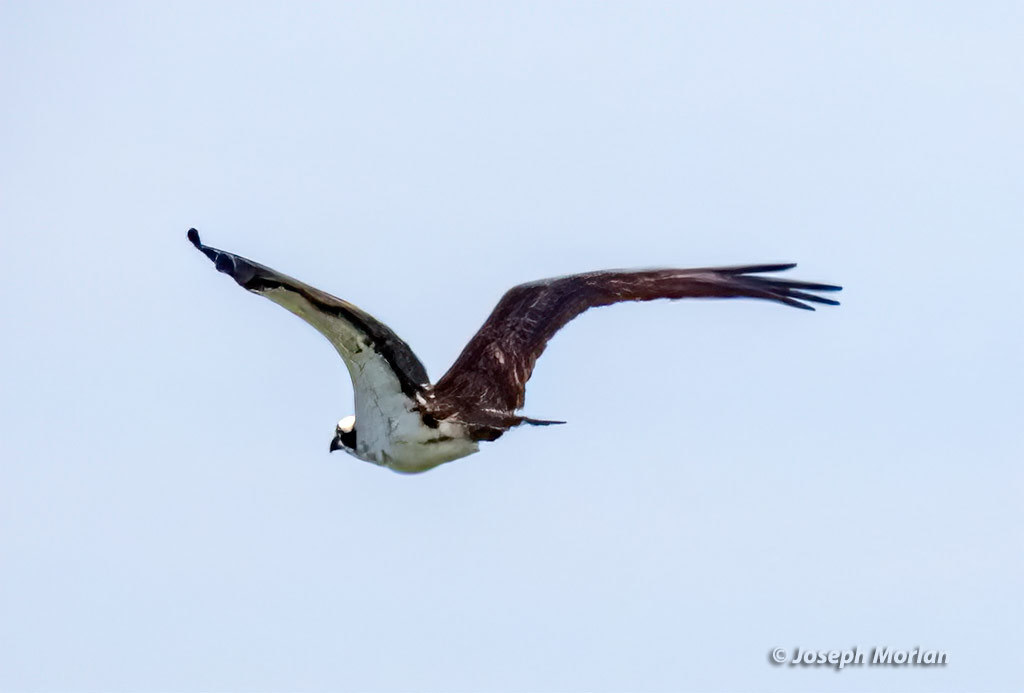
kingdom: Animalia
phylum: Chordata
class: Aves
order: Accipitriformes
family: Pandionidae
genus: Pandion
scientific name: Pandion haliaetus
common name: Osprey
